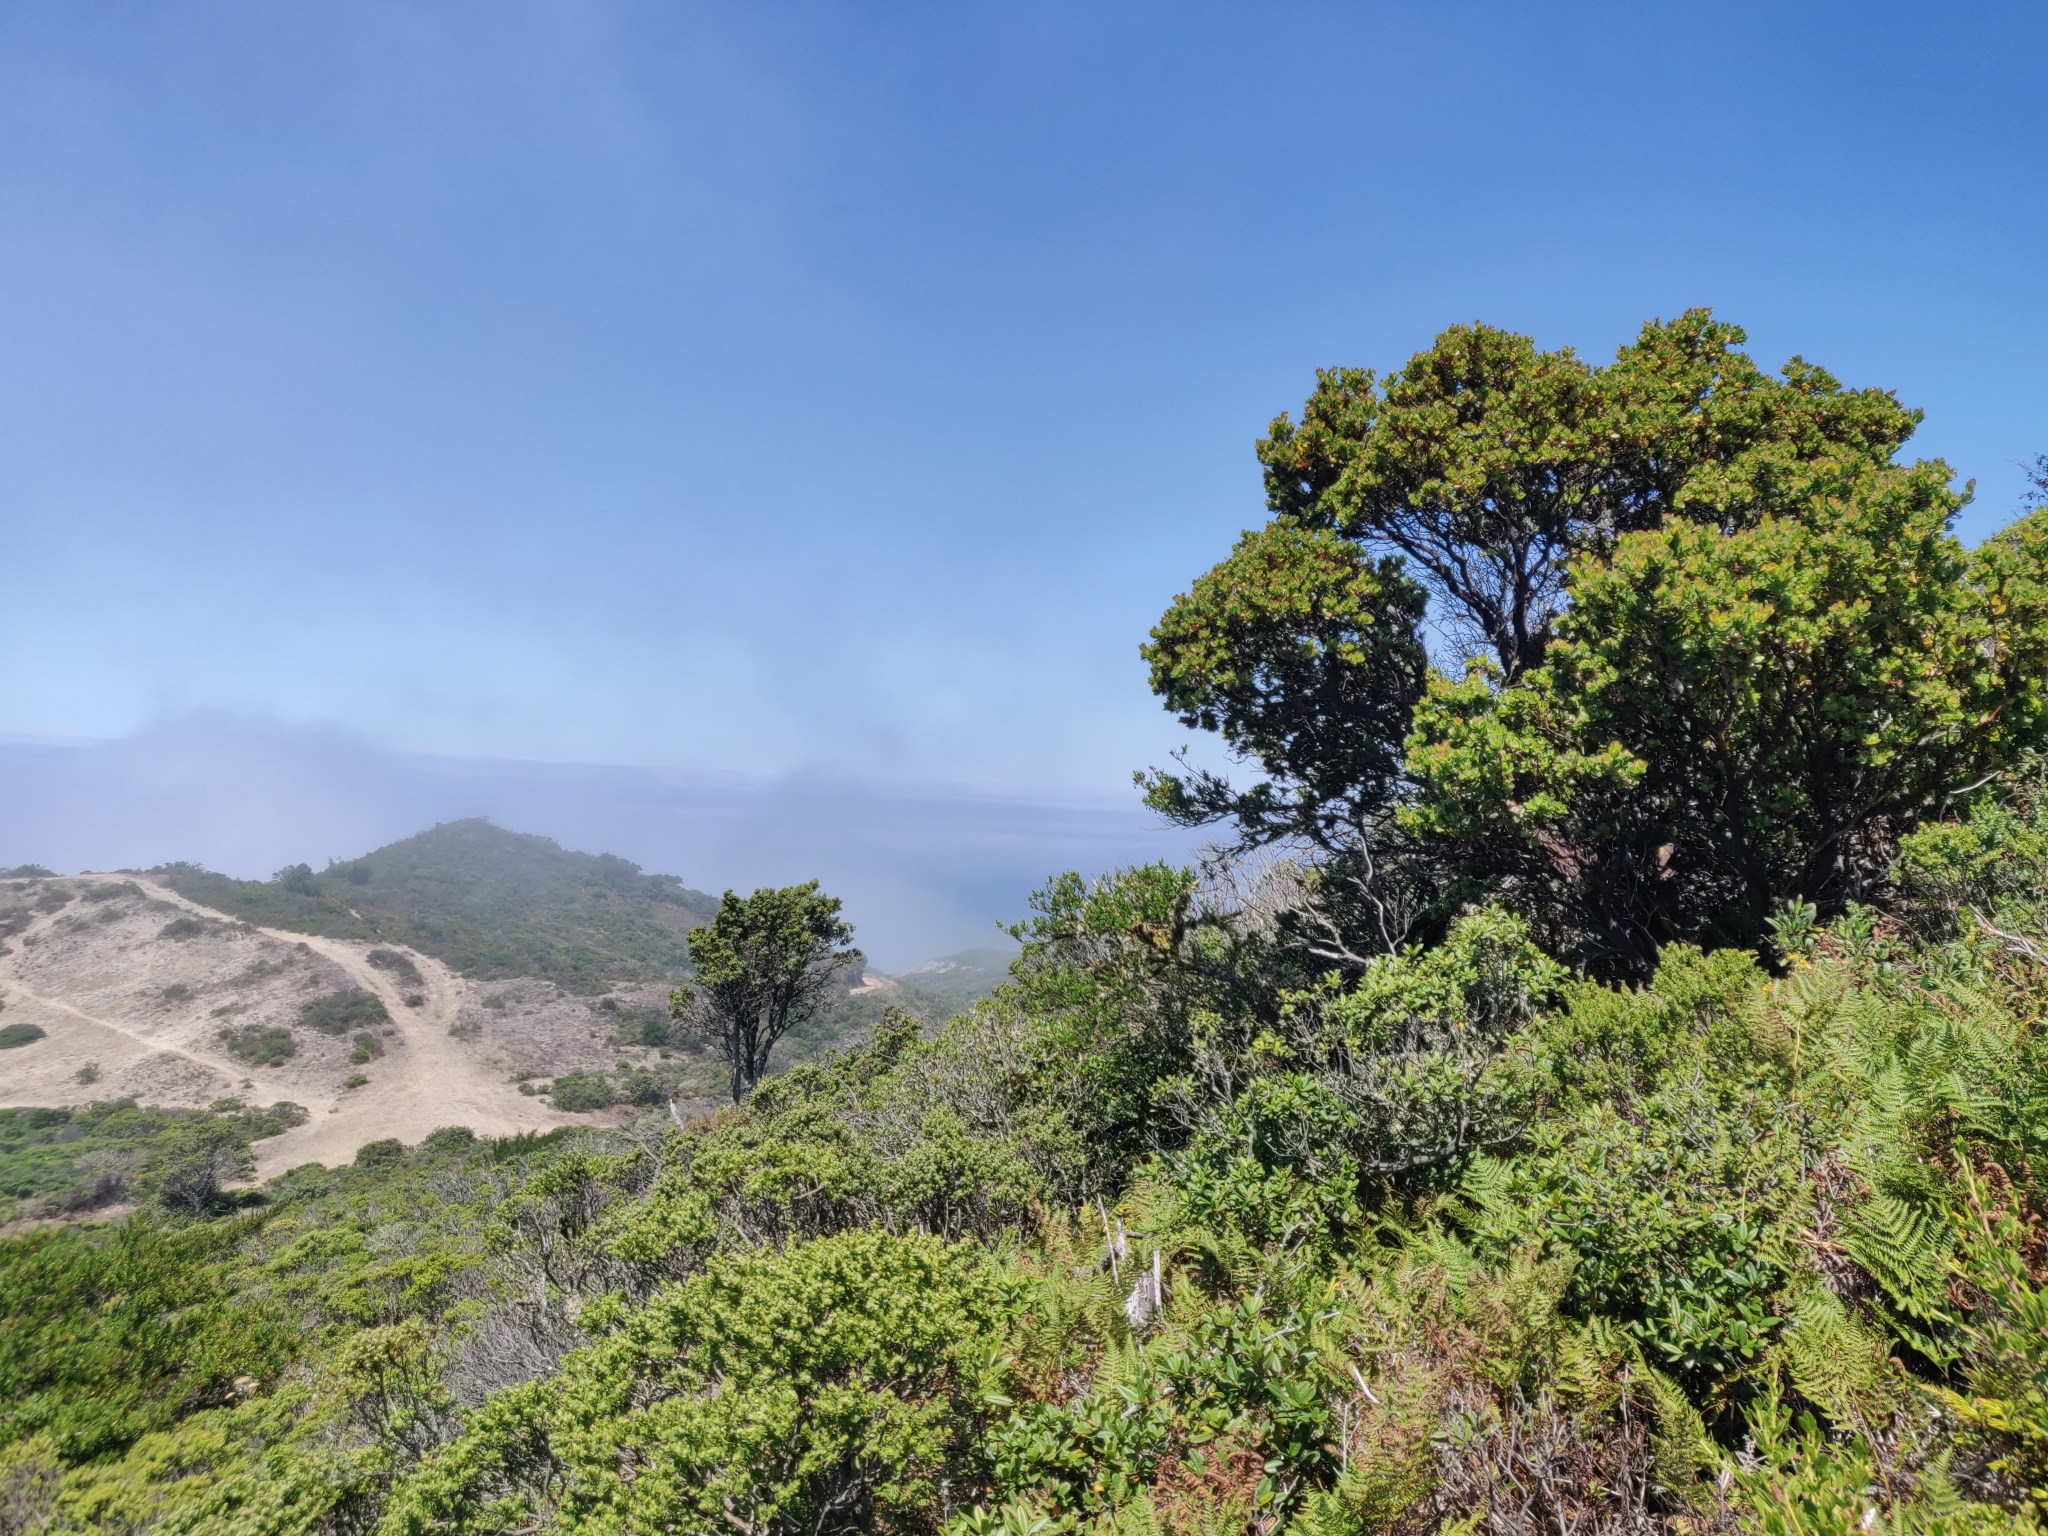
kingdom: Plantae
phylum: Tracheophyta
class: Magnoliopsida
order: Ericales
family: Ericaceae
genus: Arctostaphylos
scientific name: Arctostaphylos montaraensis
